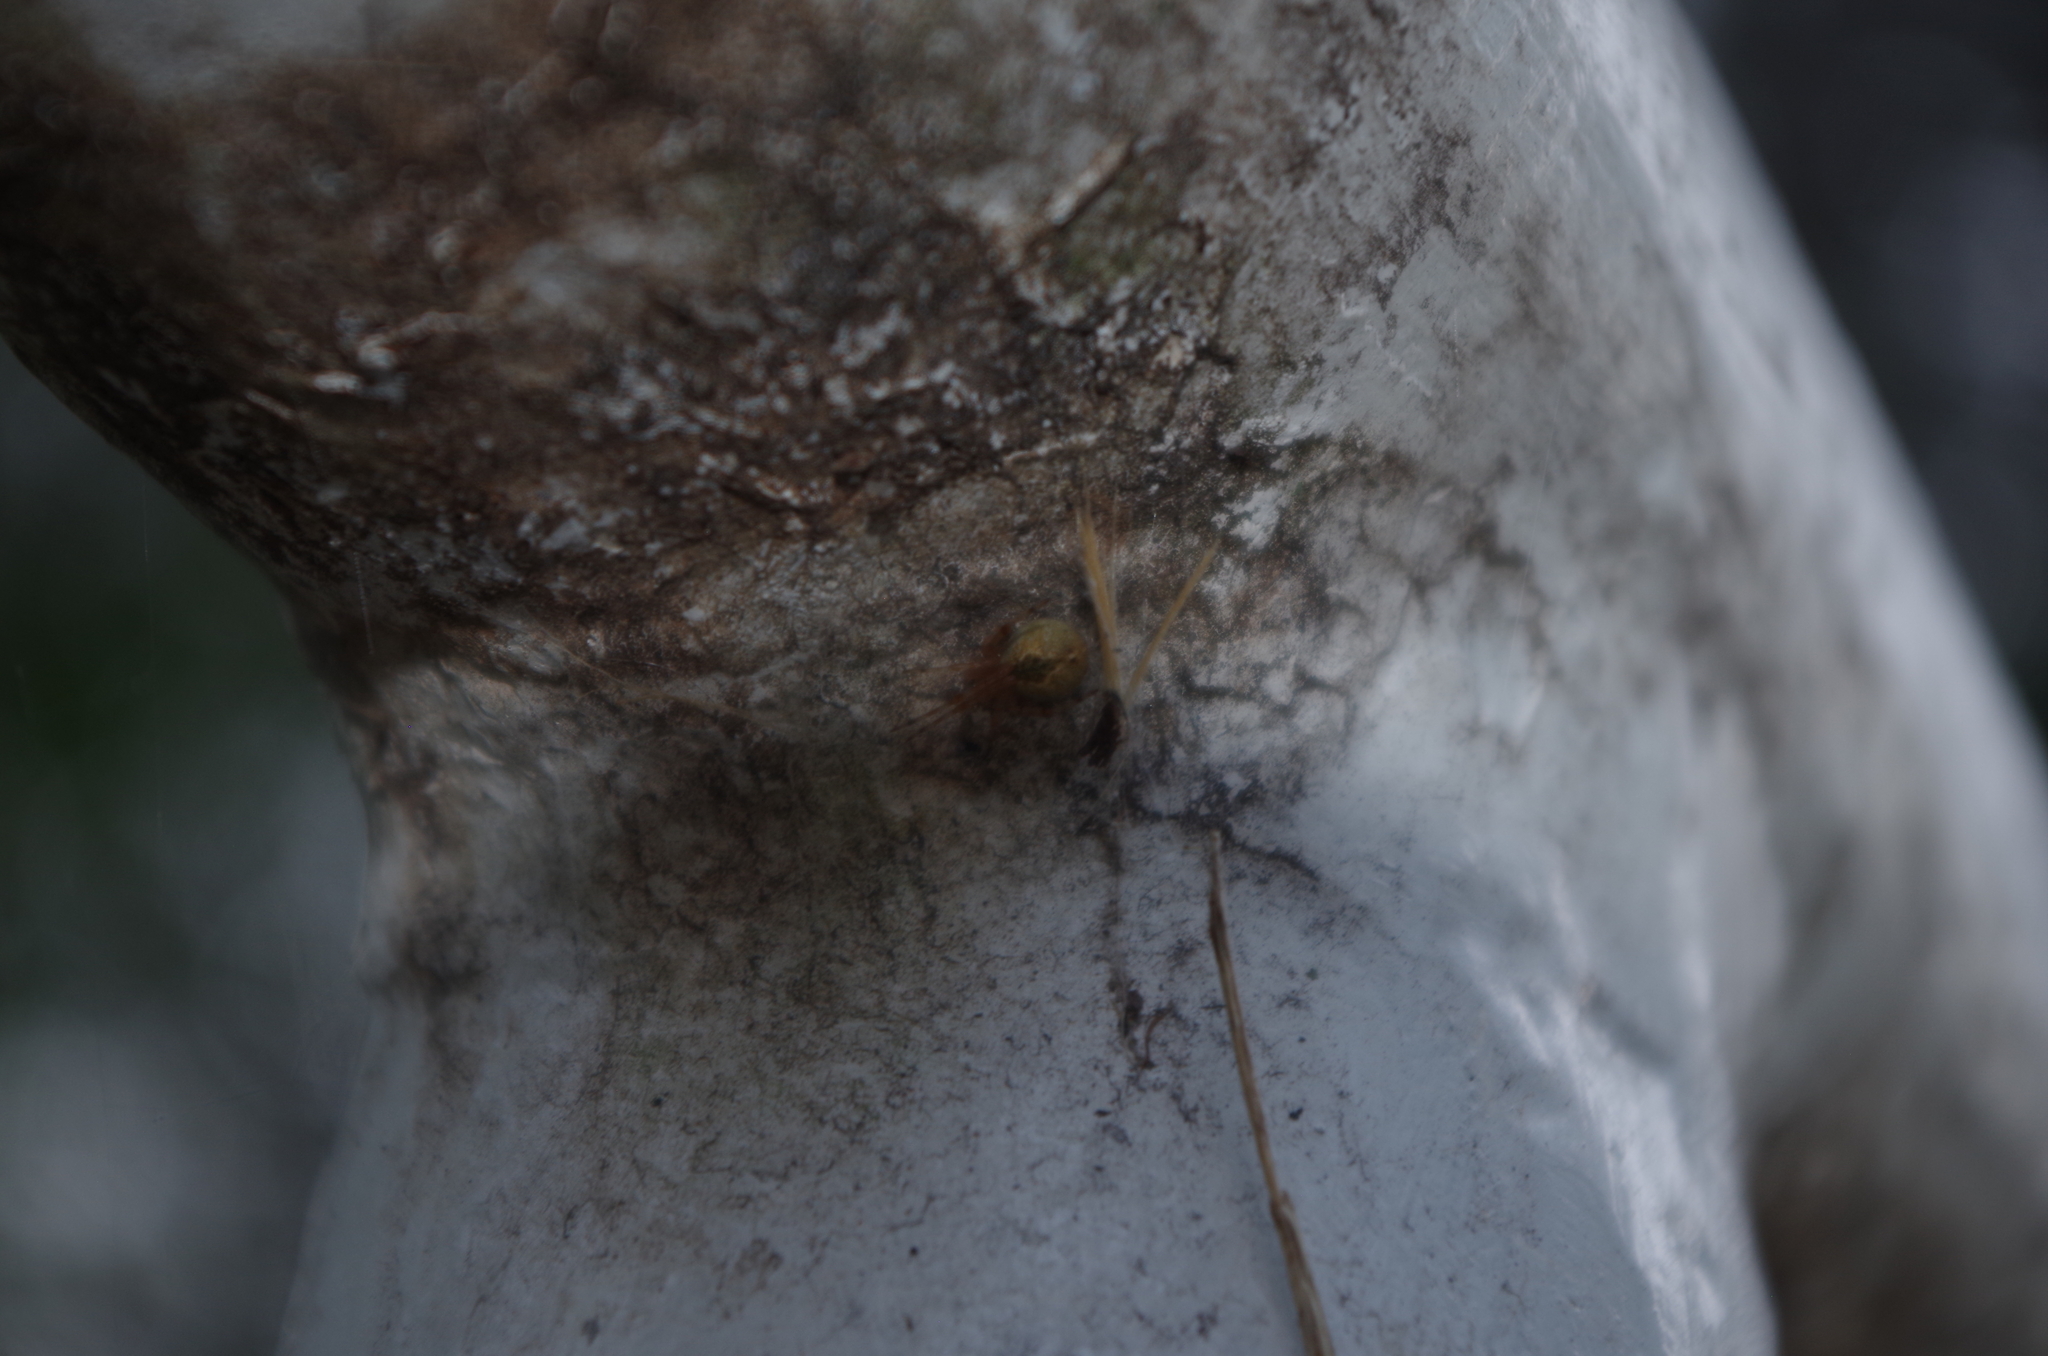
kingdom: Animalia
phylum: Arthropoda
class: Arachnida
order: Araneae
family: Theridiidae
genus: Cryptachaea
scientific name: Cryptachaea veruculata
